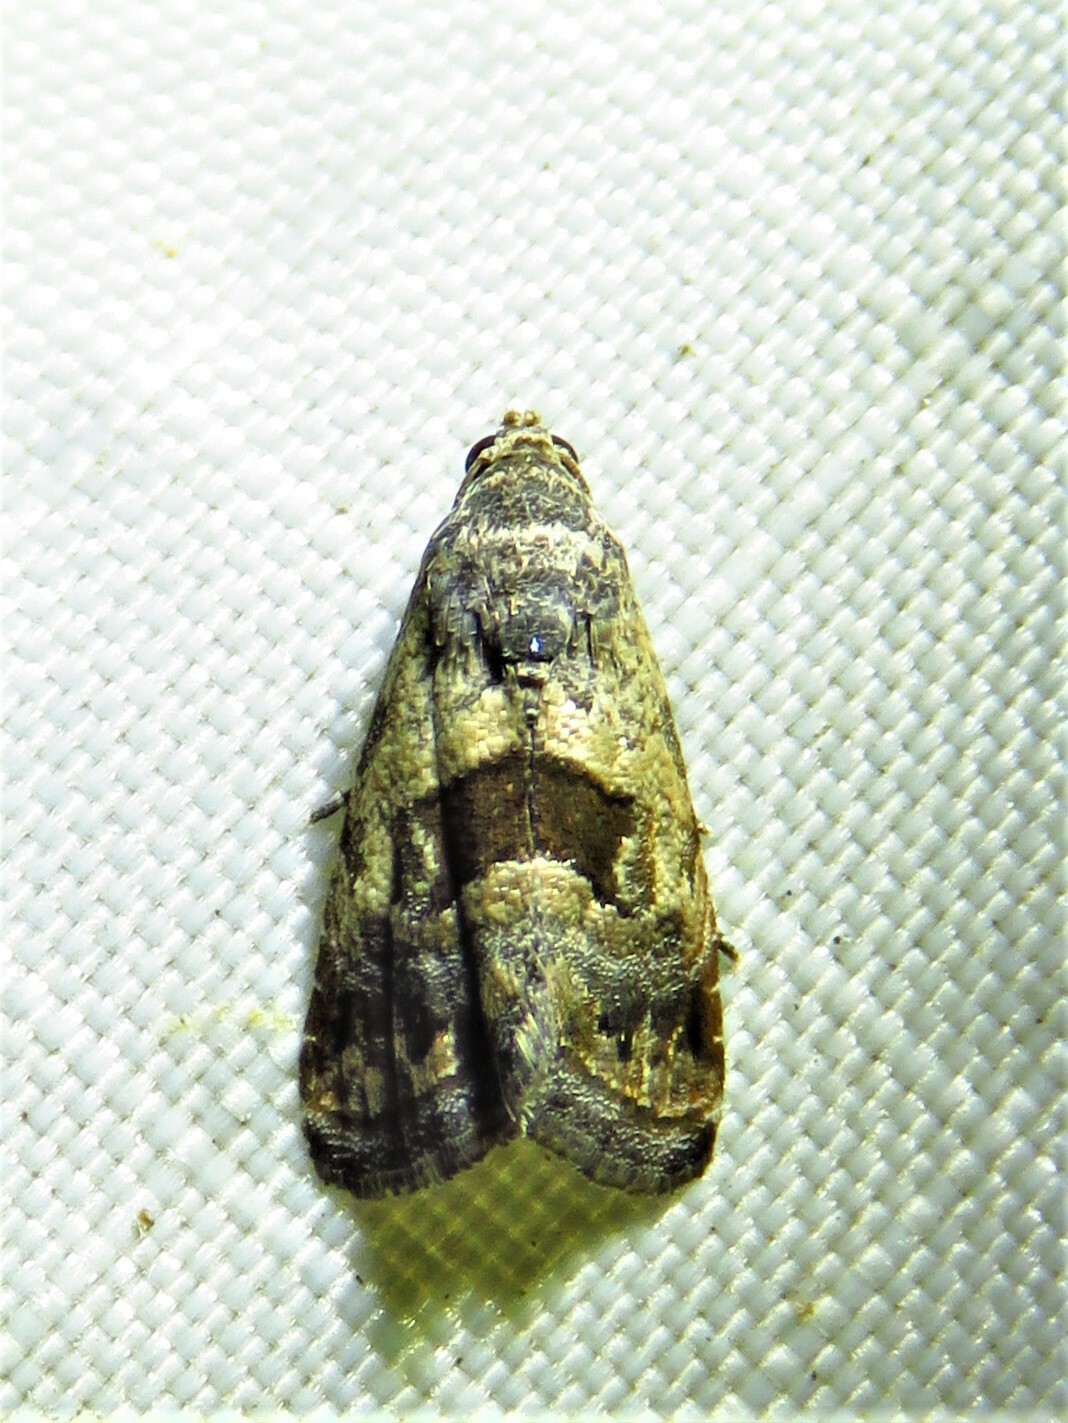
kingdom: Animalia
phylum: Arthropoda
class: Insecta
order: Lepidoptera
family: Noctuidae
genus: Tripudia
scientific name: Tripudia quadrifera
